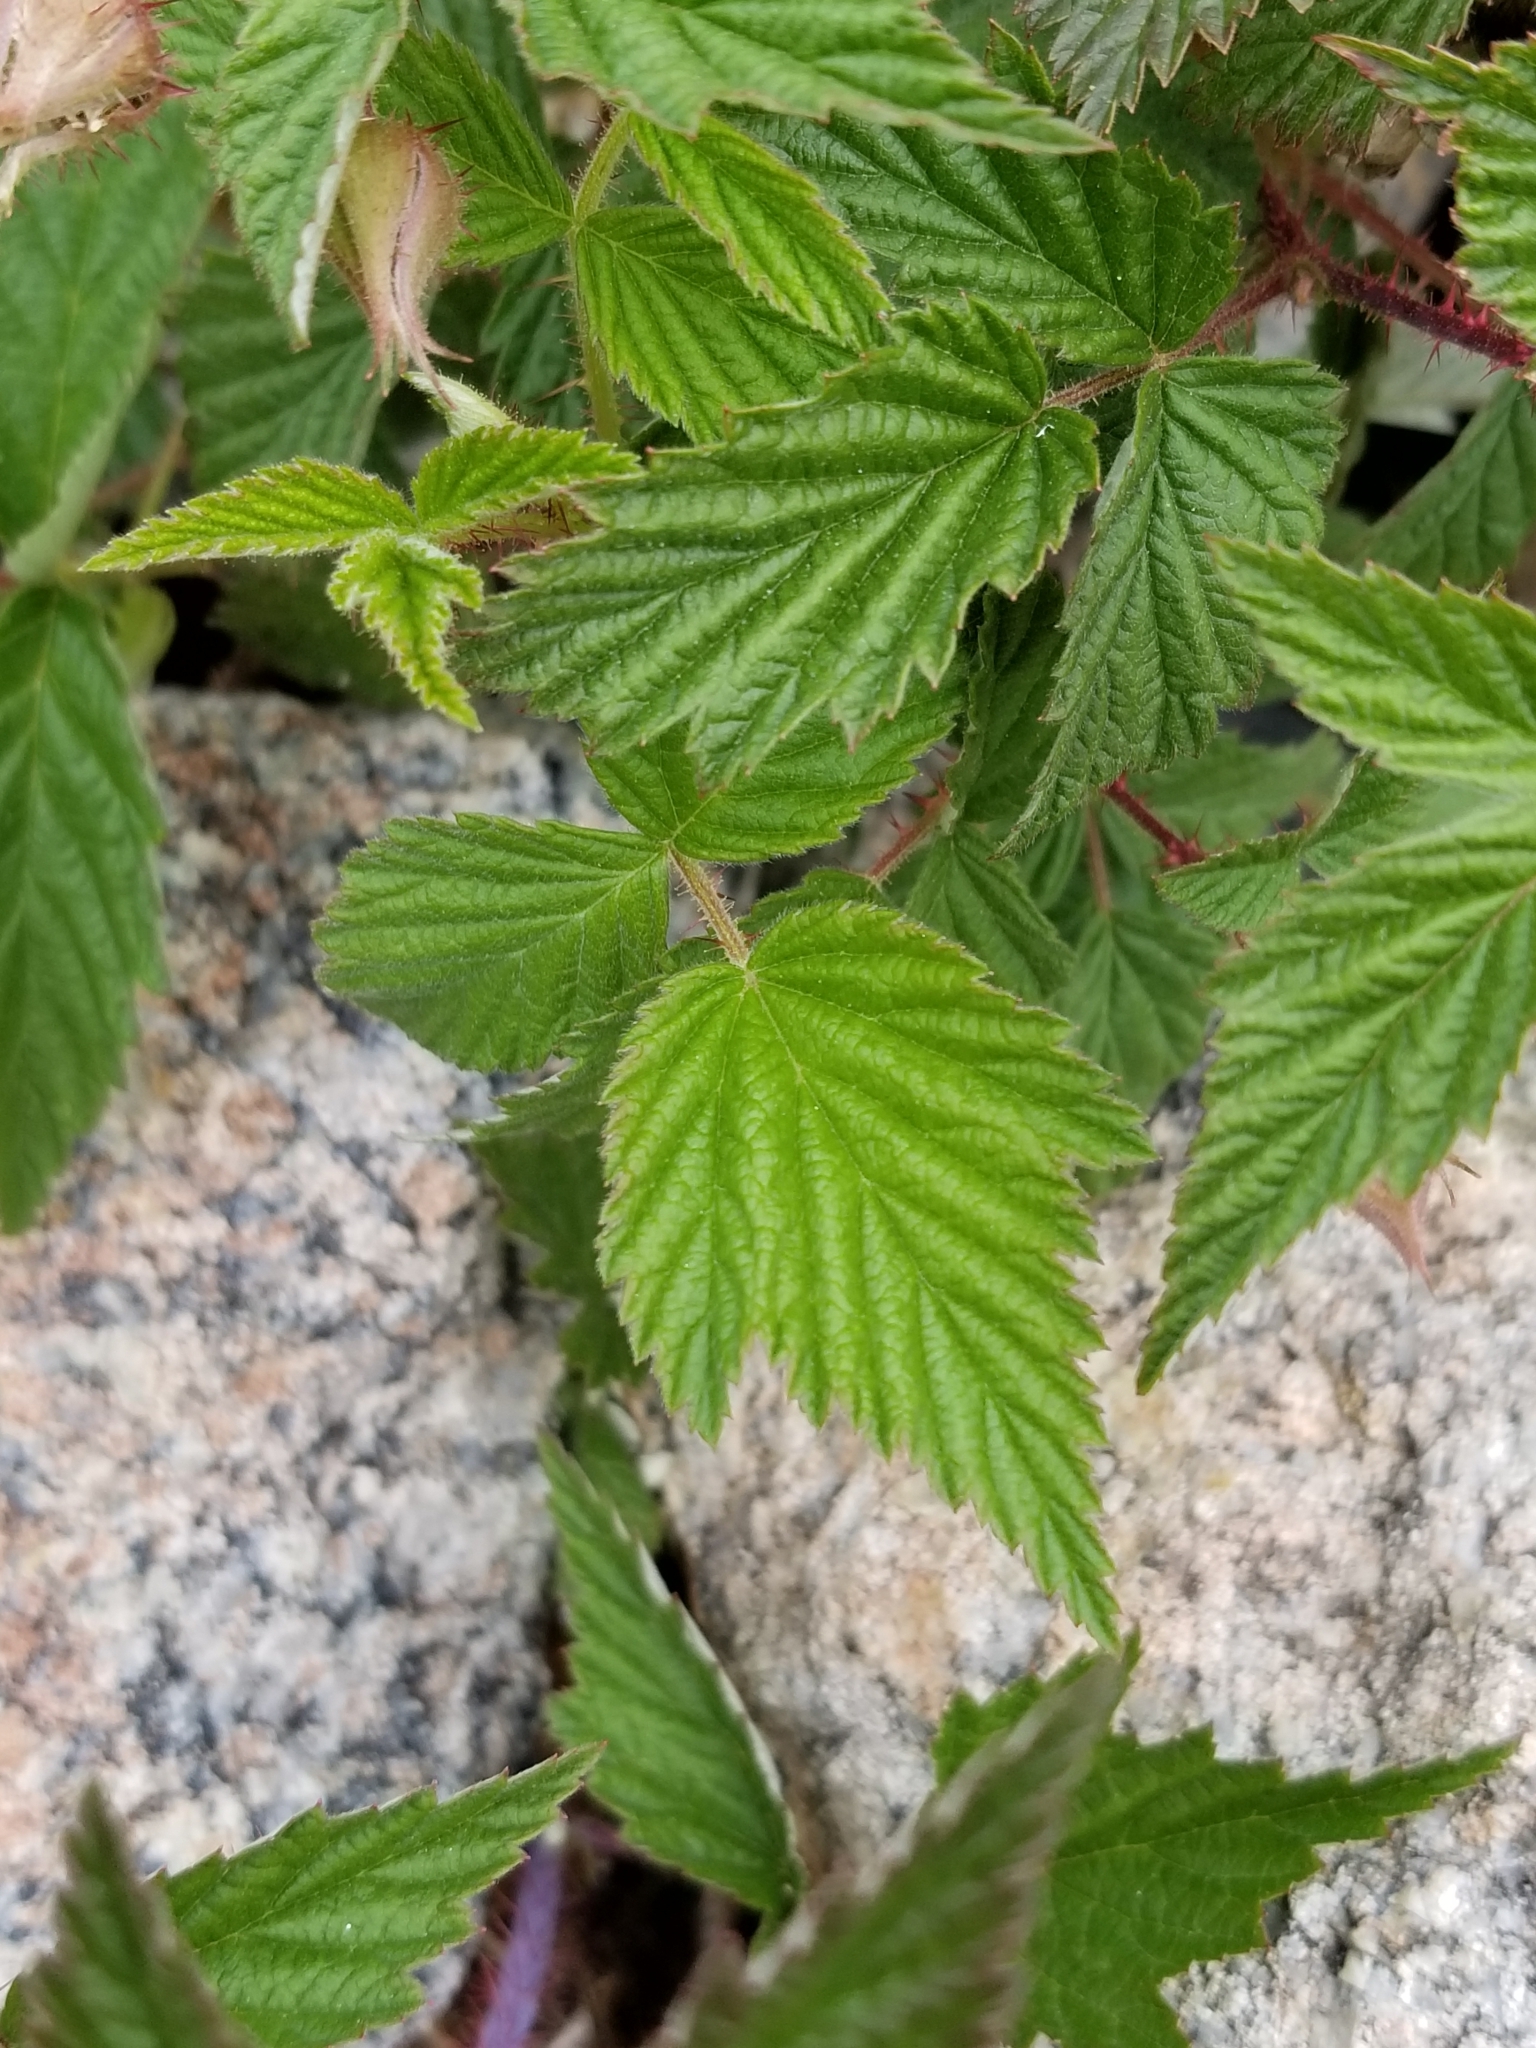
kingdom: Plantae
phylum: Tracheophyta
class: Magnoliopsida
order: Rosales
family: Rosaceae
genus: Rubus
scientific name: Rubus idaeus
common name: Raspberry
